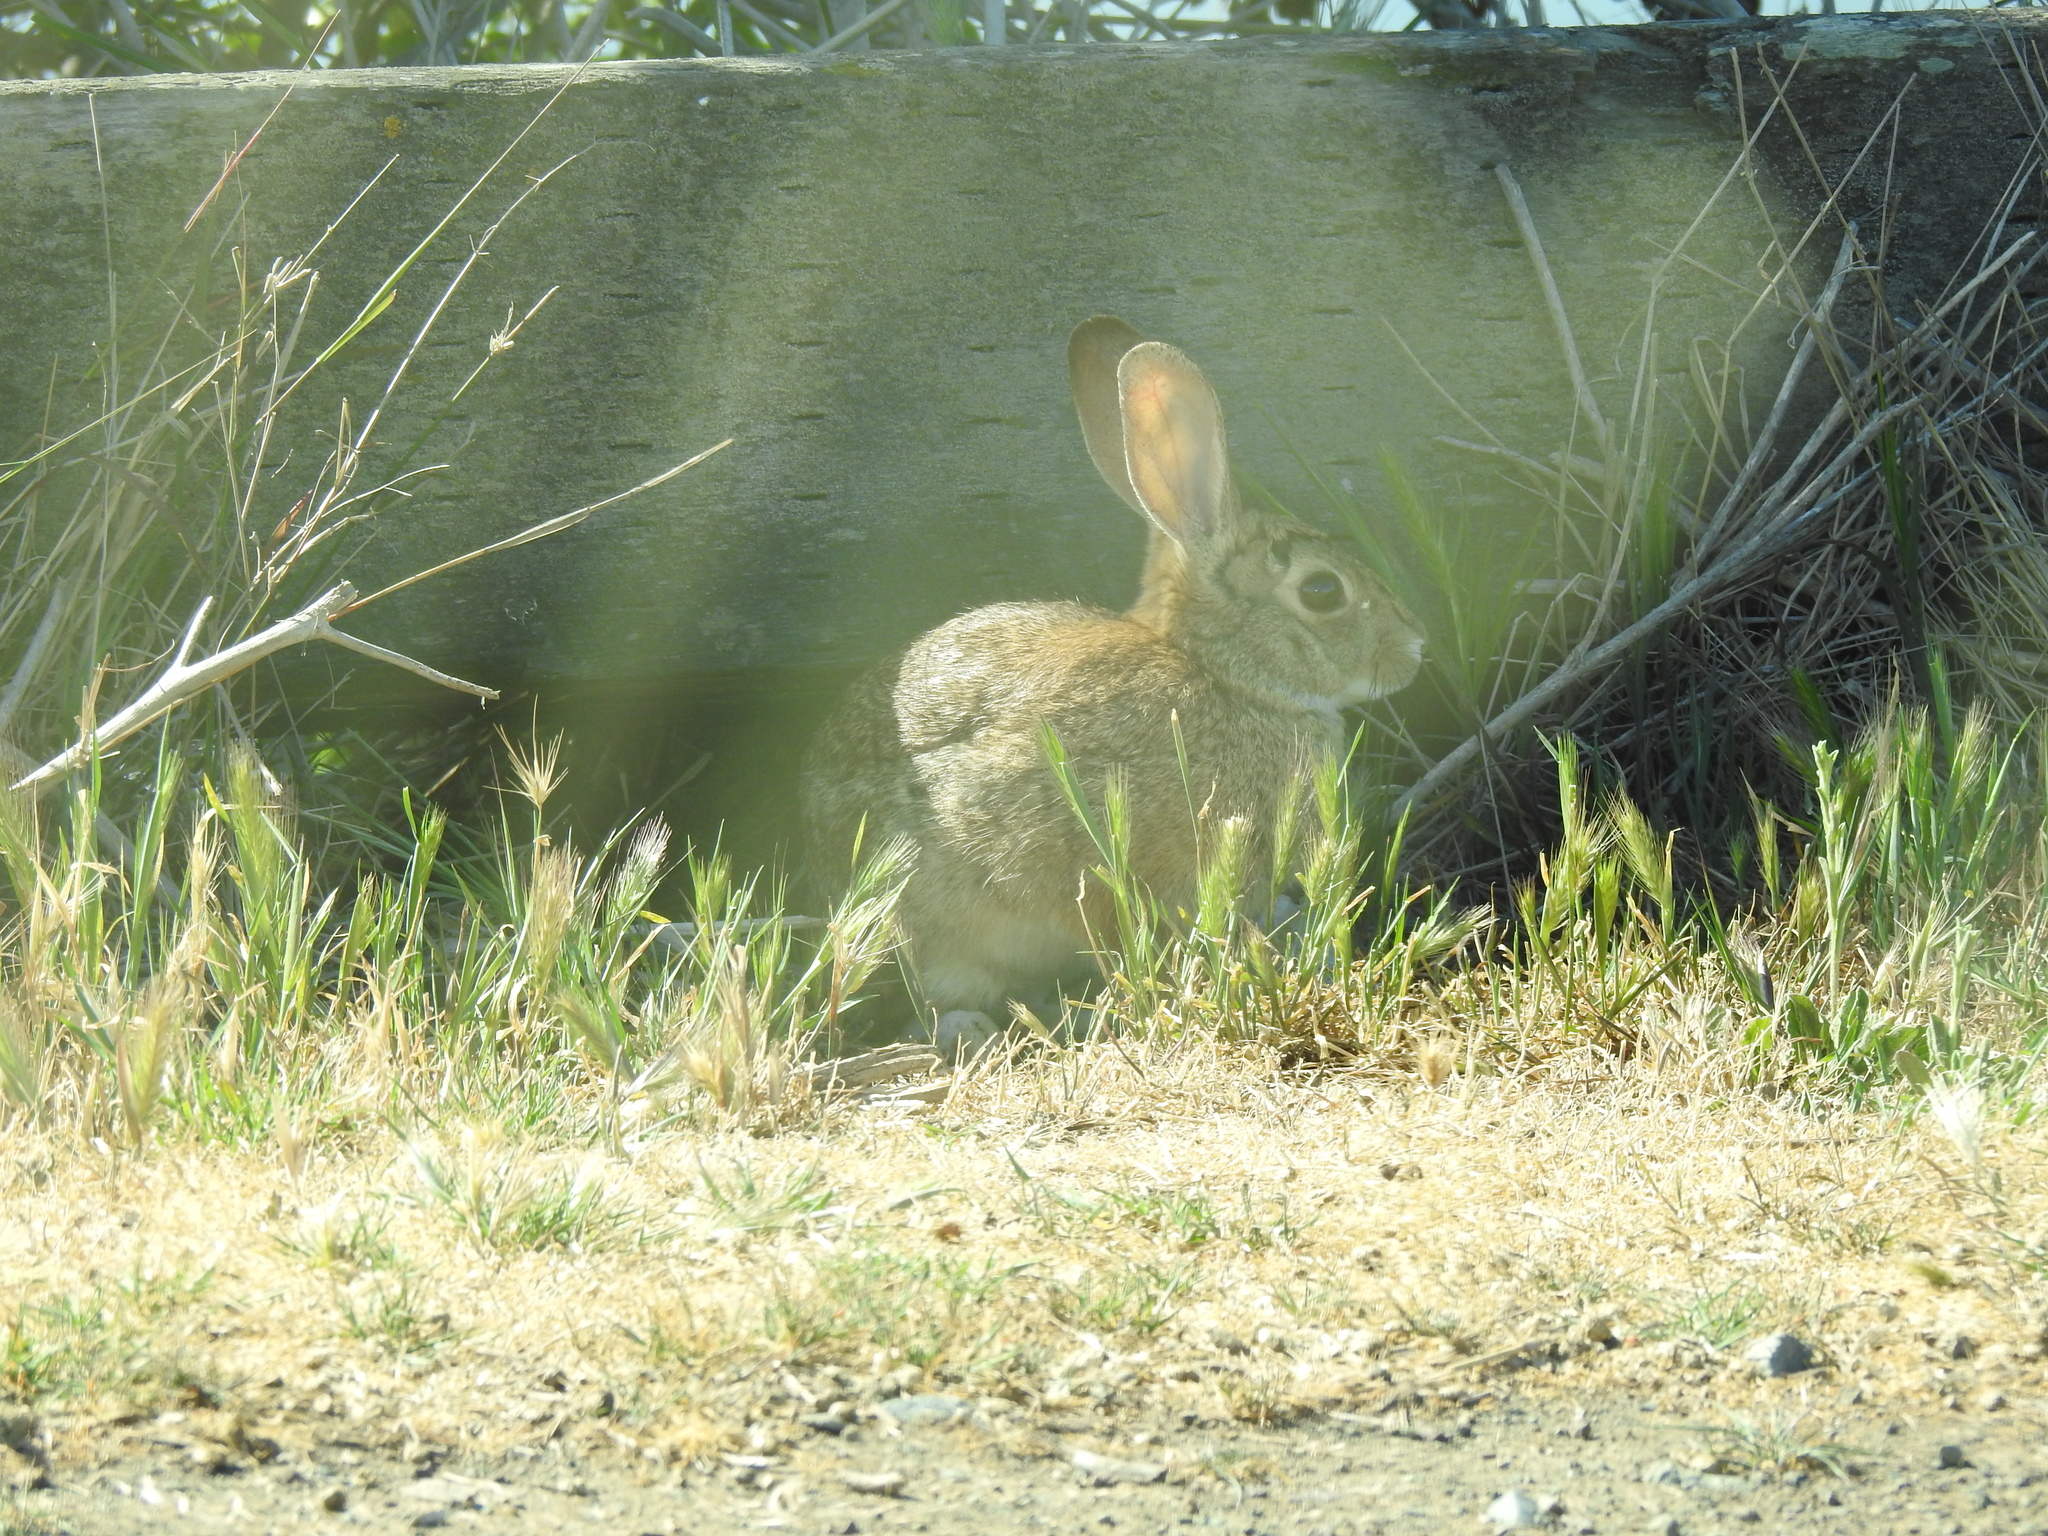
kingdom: Animalia
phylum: Chordata
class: Mammalia
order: Lagomorpha
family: Leporidae
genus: Sylvilagus
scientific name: Sylvilagus audubonii
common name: Desert cottontail
